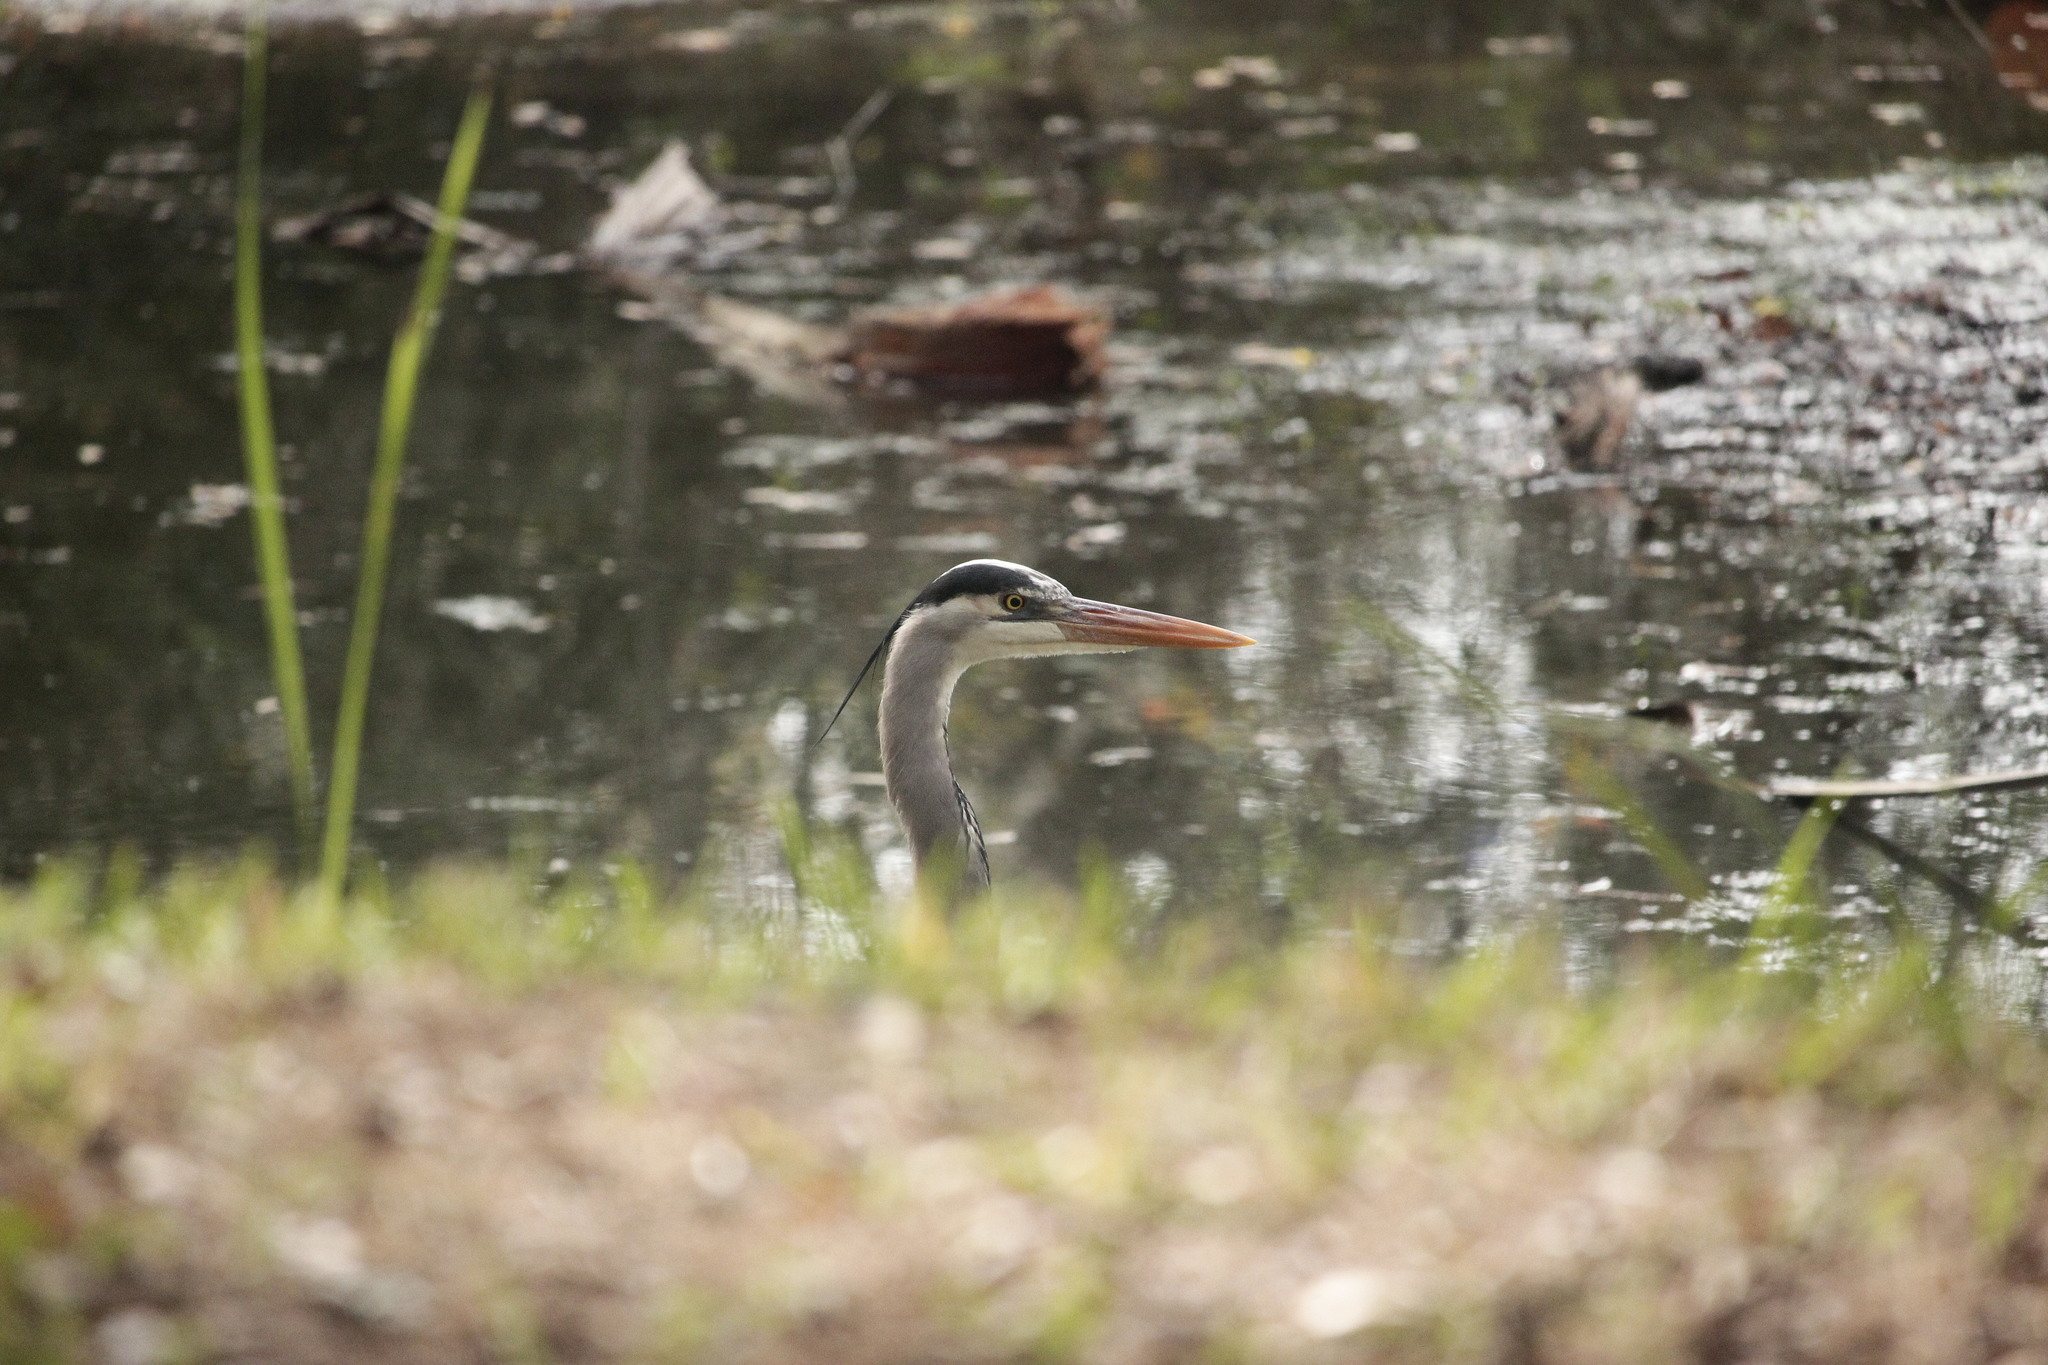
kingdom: Animalia
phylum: Chordata
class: Aves
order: Pelecaniformes
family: Ardeidae
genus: Ardea
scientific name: Ardea herodias
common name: Great blue heron
